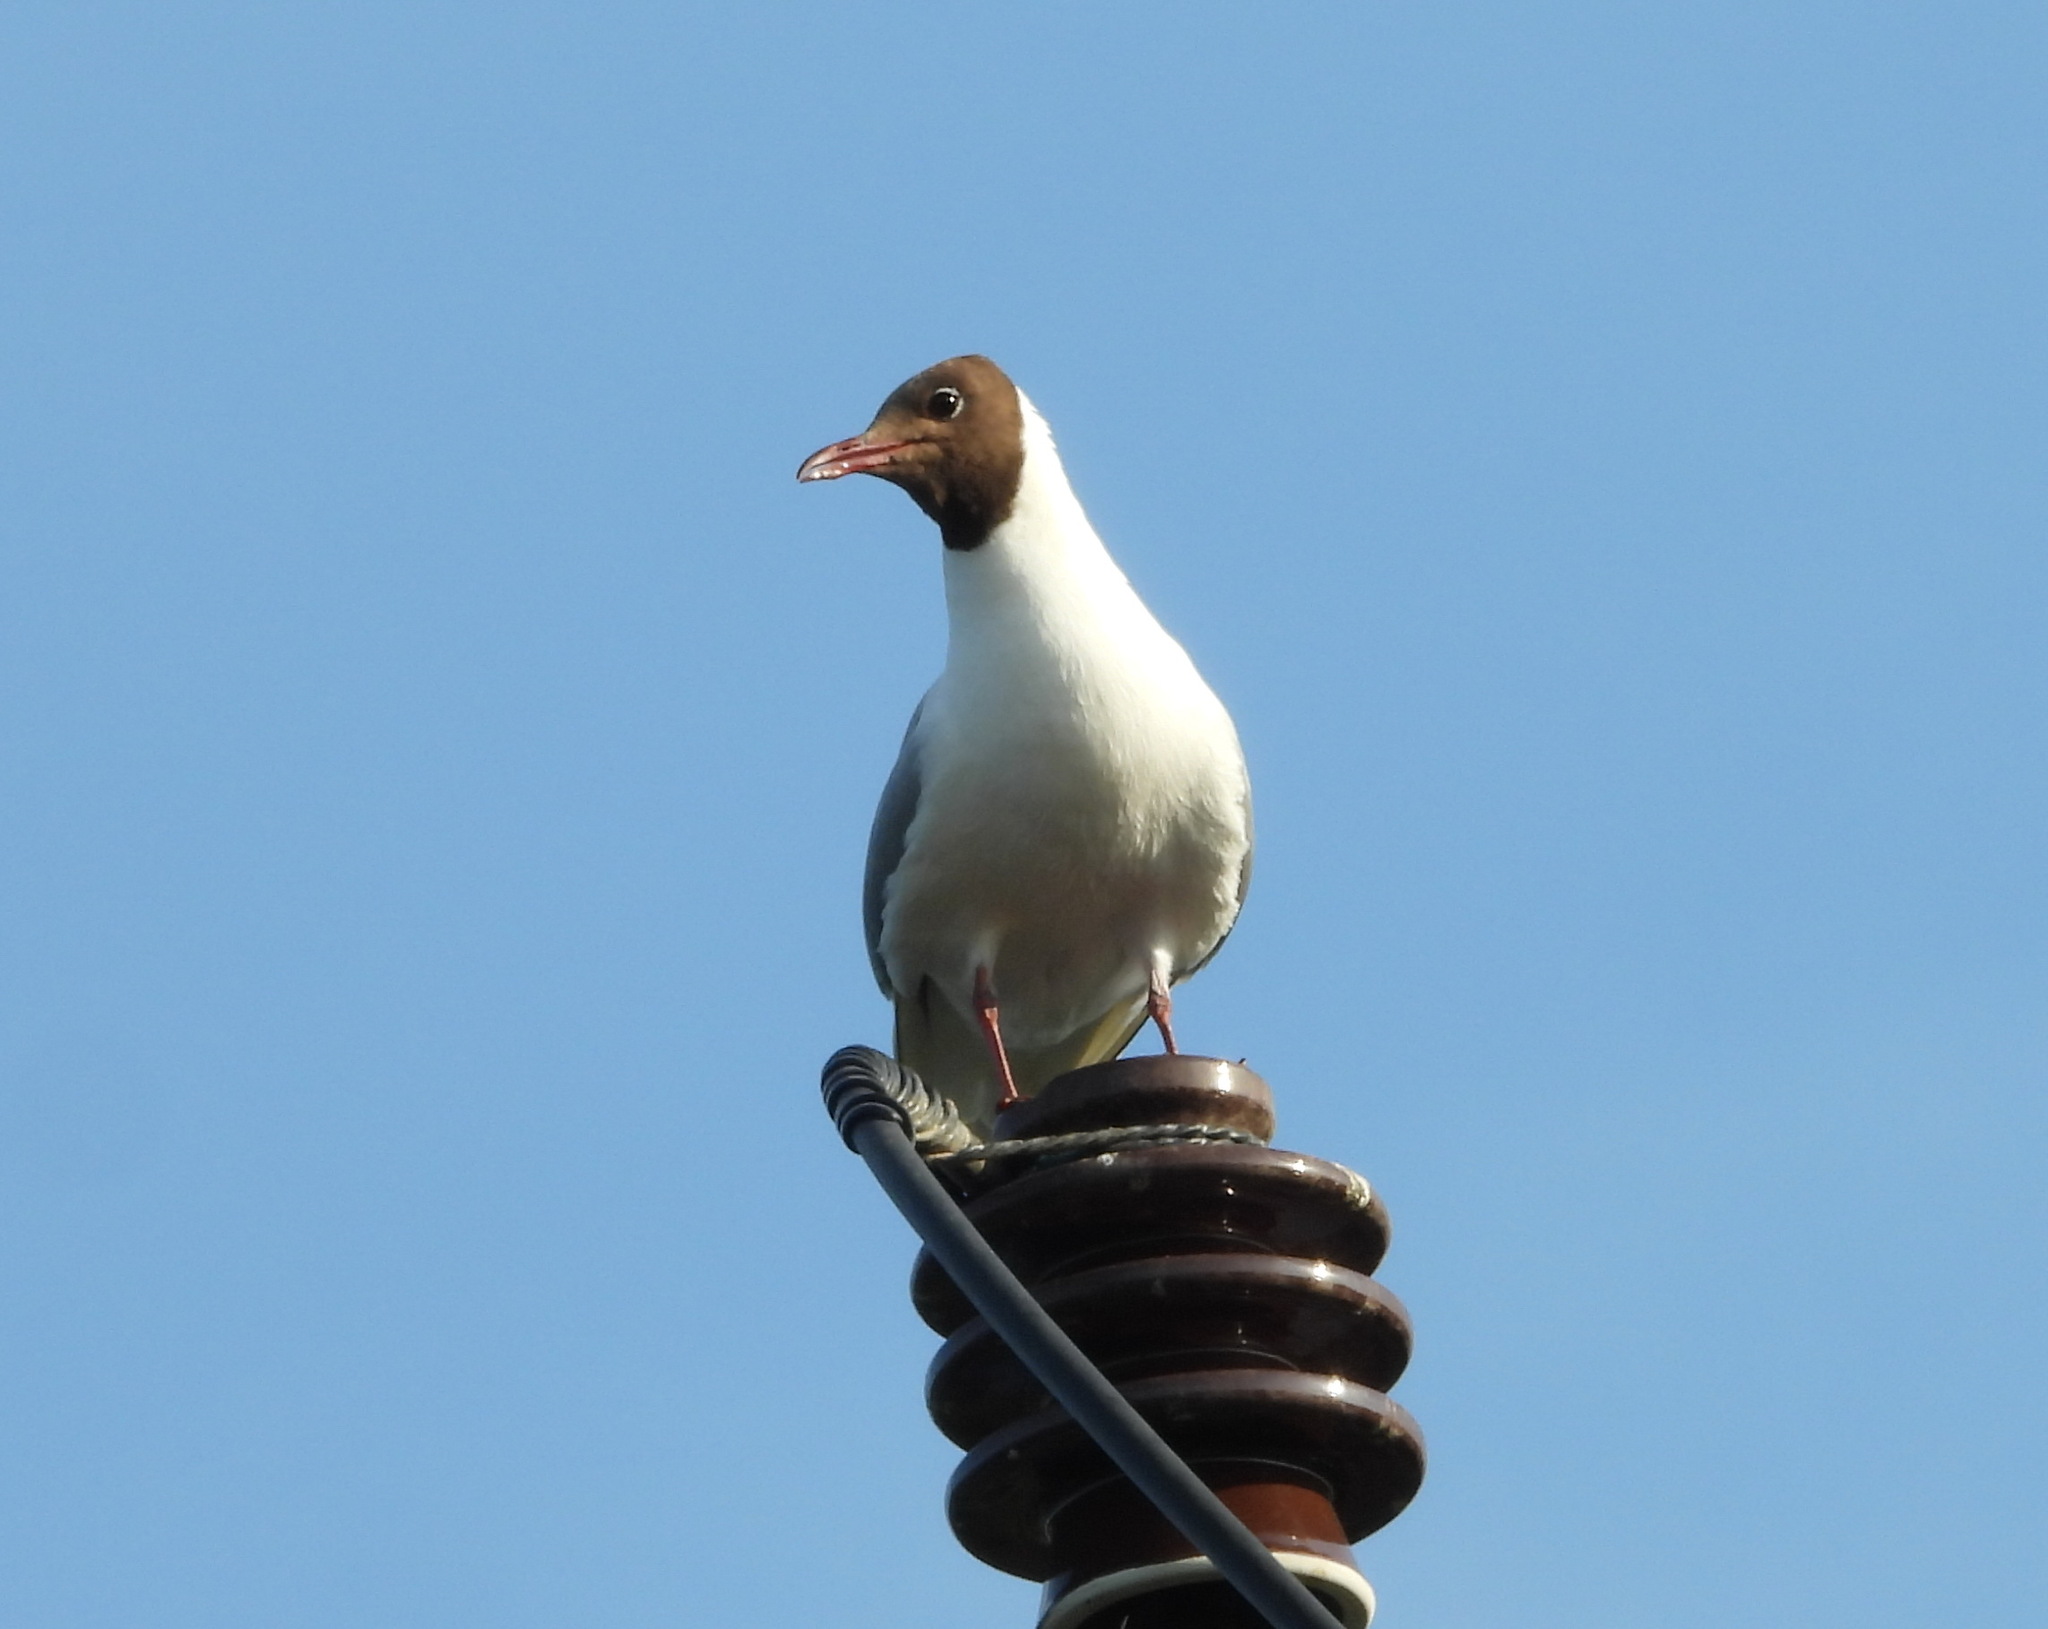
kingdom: Animalia
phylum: Chordata
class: Aves
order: Charadriiformes
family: Laridae
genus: Chroicocephalus
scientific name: Chroicocephalus ridibundus
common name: Black-headed gull
